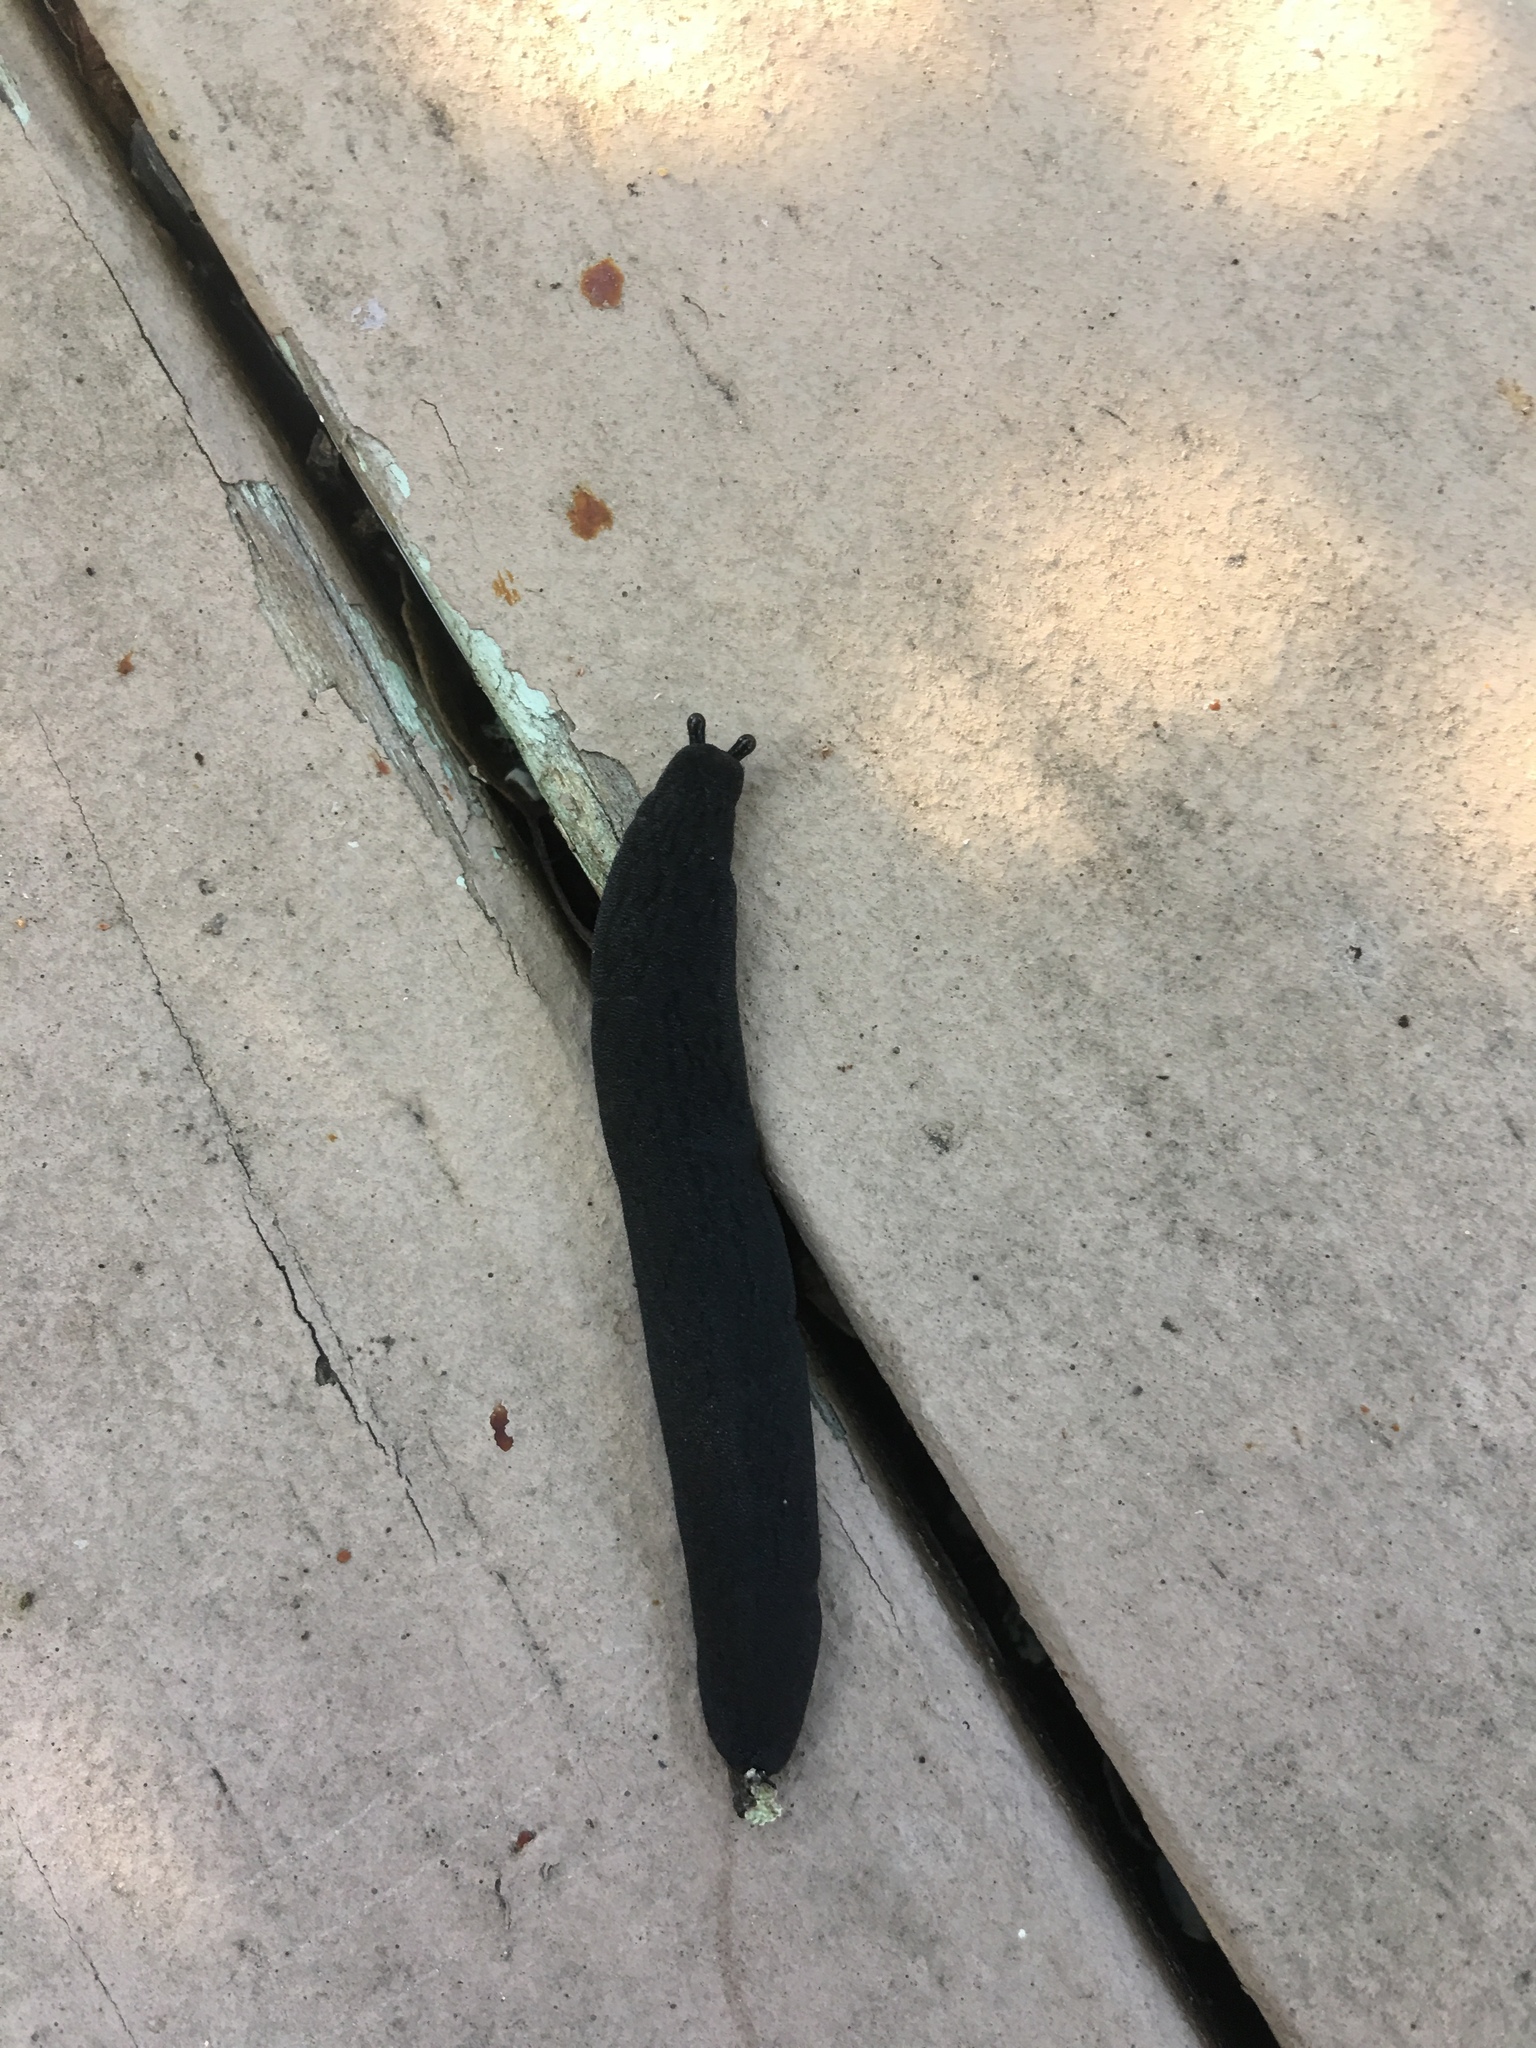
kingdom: Animalia
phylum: Mollusca
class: Gastropoda
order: Systellommatophora
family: Veronicellidae
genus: Belocaulus
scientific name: Belocaulus angustipes
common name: Black velvet leatherleaf slug
